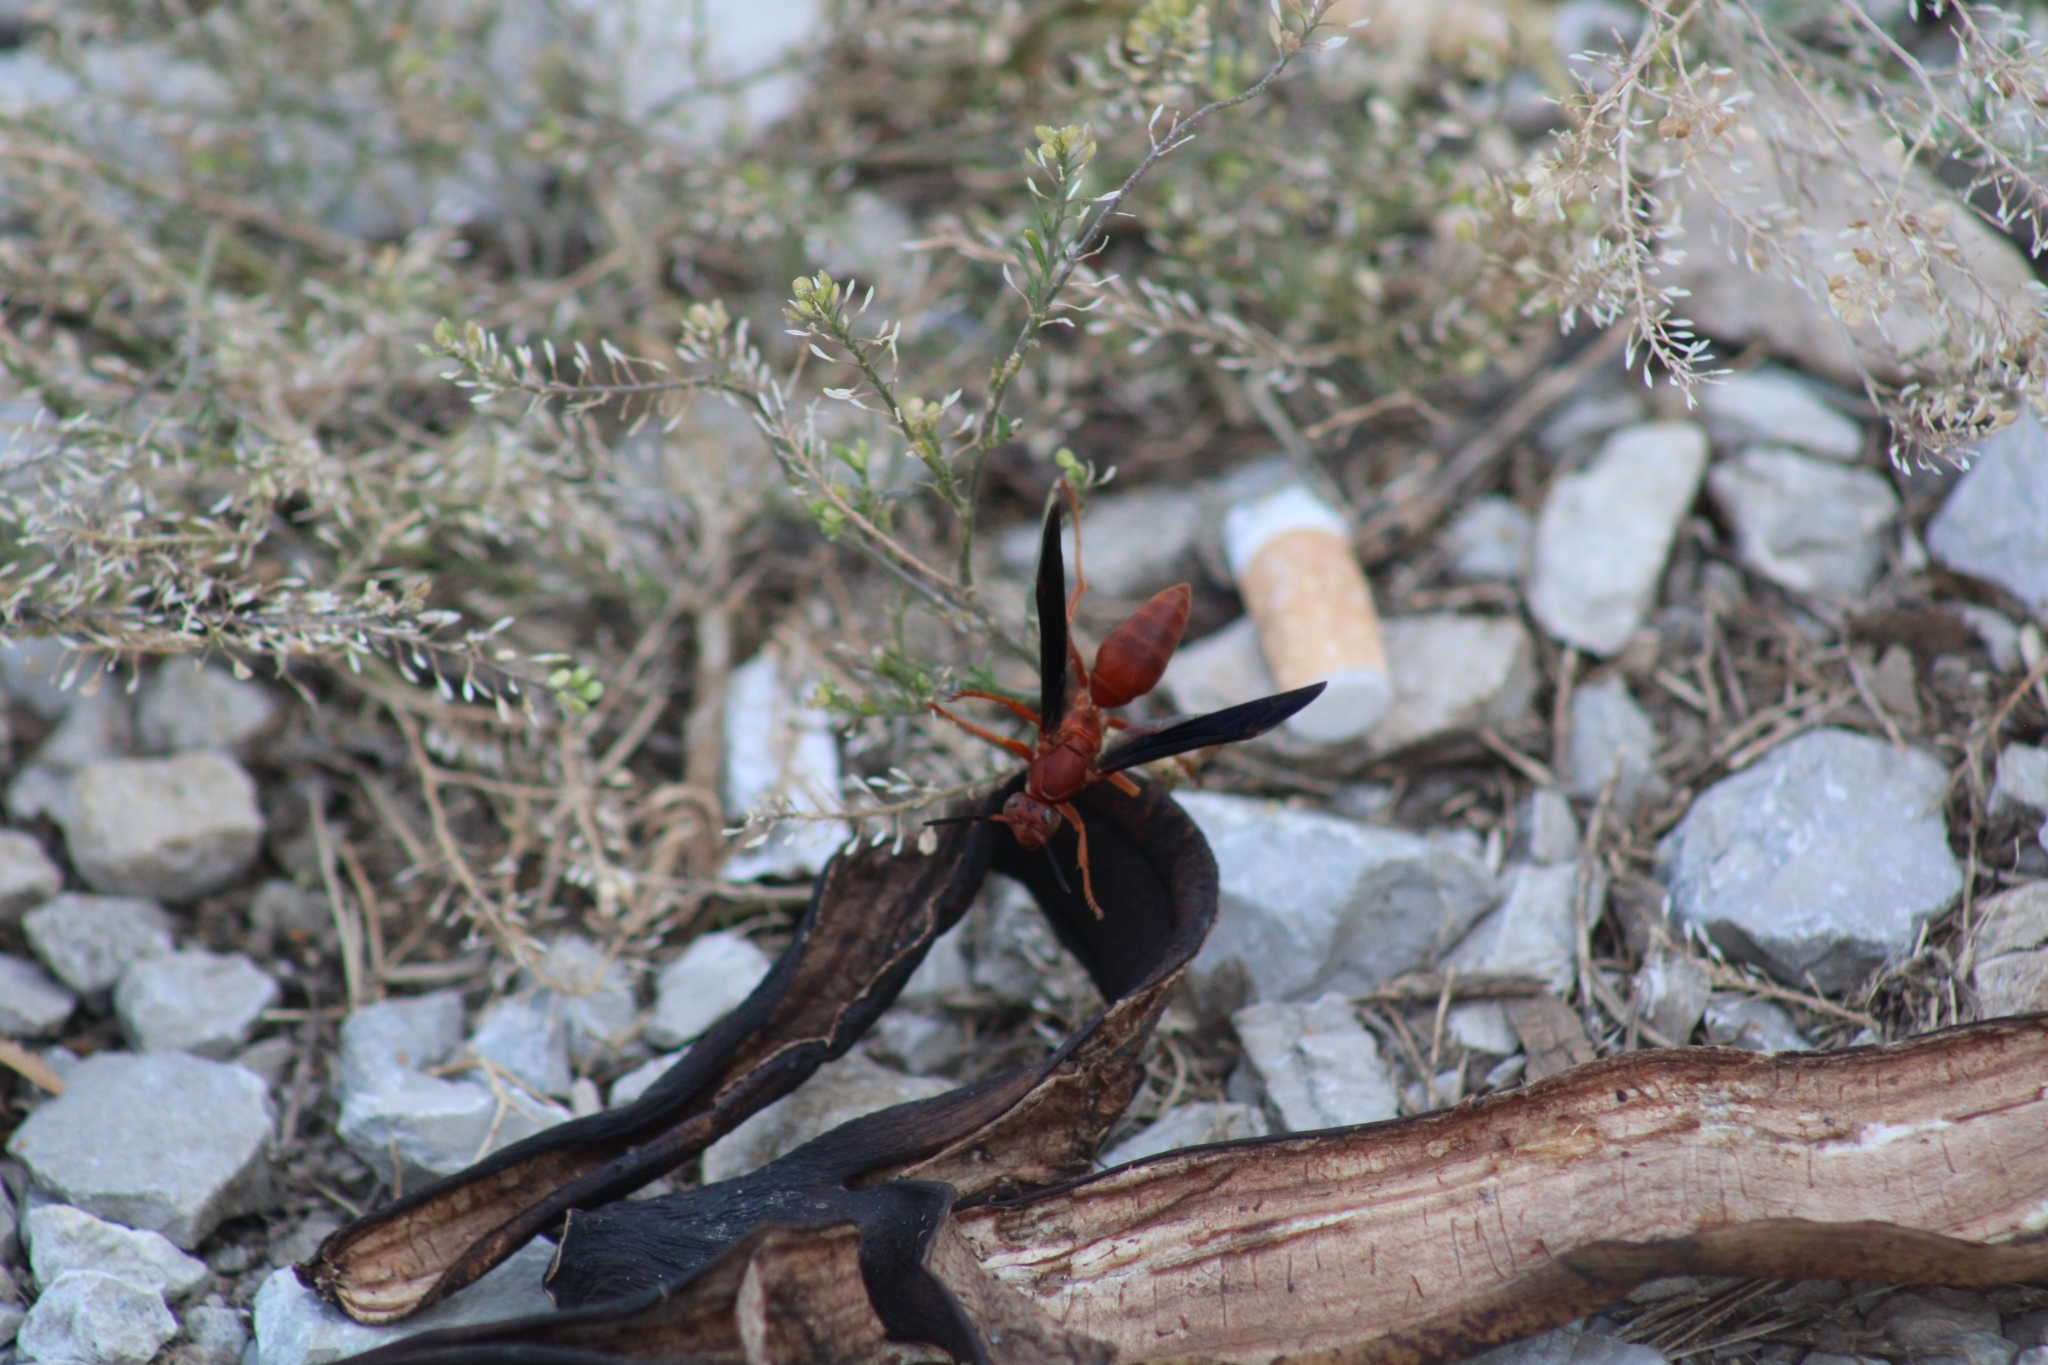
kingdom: Animalia
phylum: Arthropoda
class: Insecta
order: Hymenoptera
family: Vespidae
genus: Fuscopolistes
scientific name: Fuscopolistes
